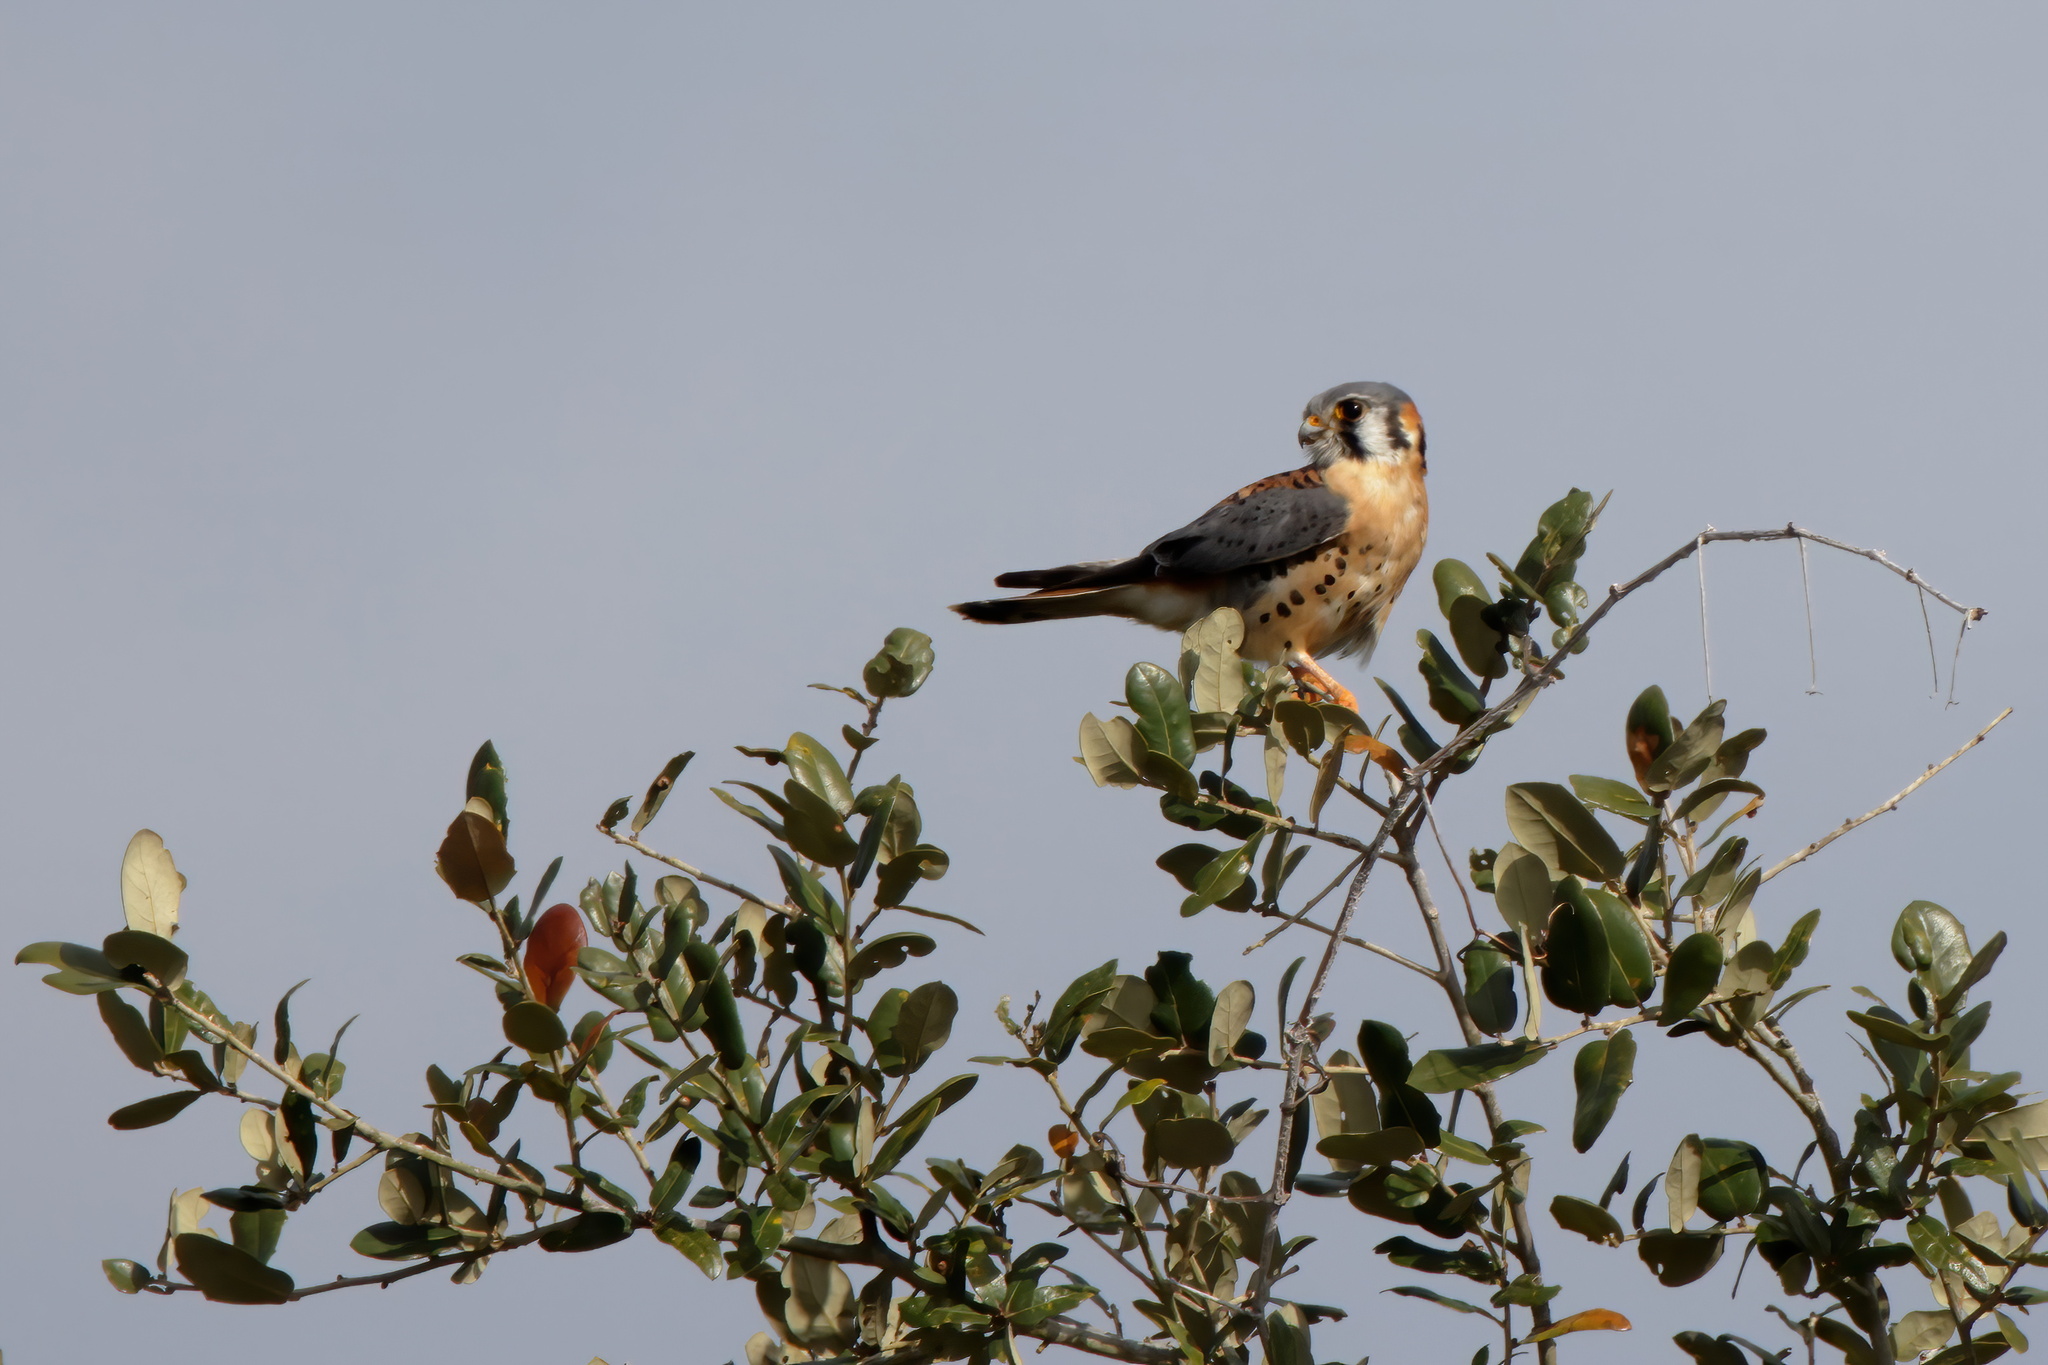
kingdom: Animalia
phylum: Chordata
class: Aves
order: Falconiformes
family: Falconidae
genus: Falco
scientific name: Falco sparverius
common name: American kestrel
